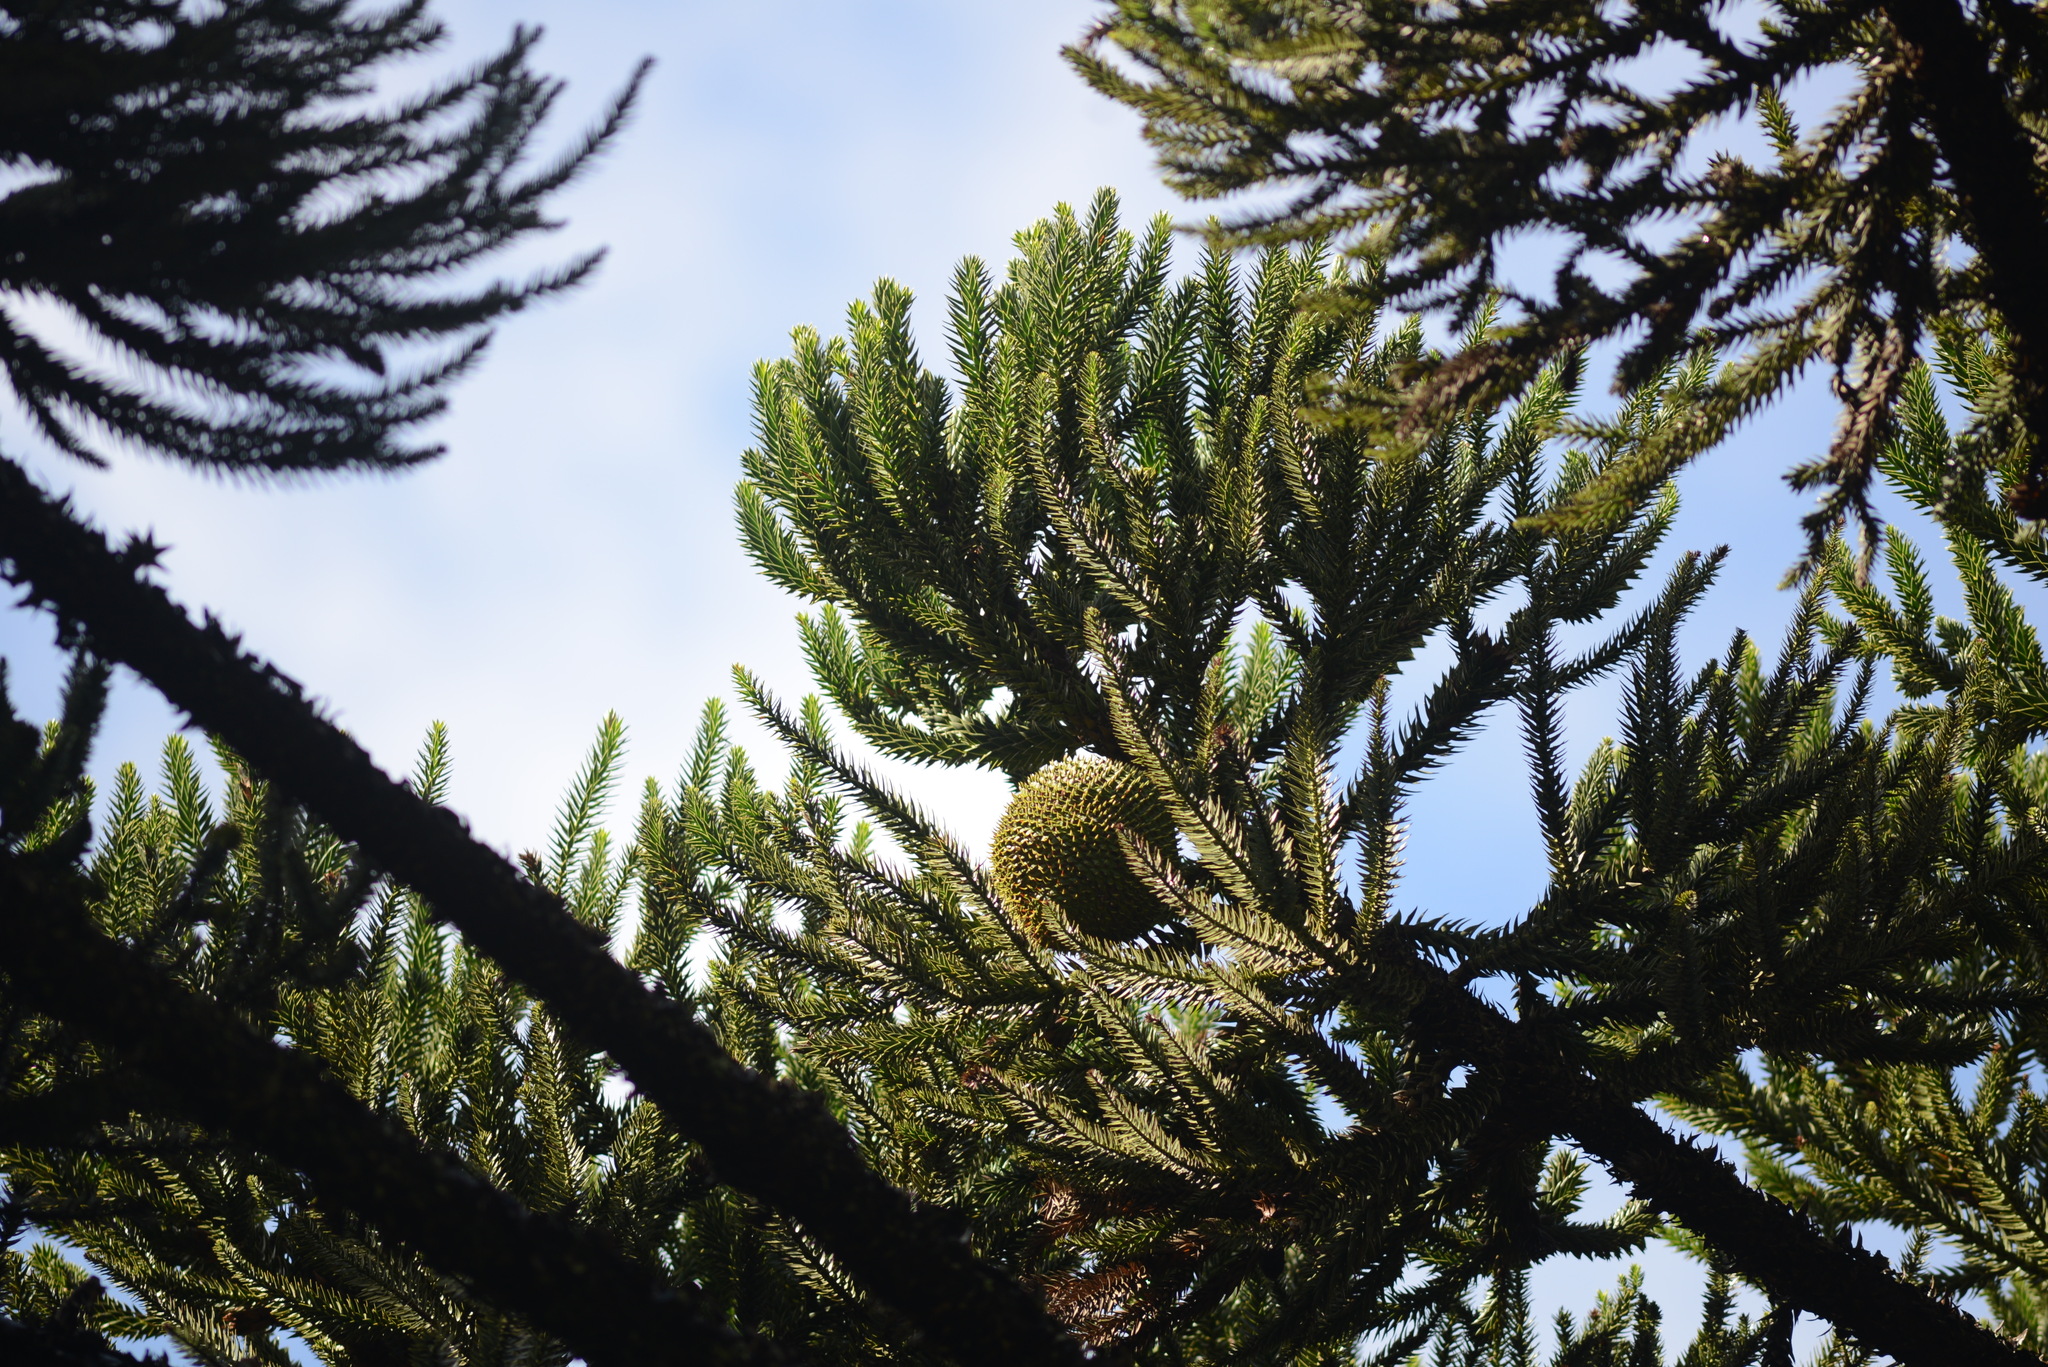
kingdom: Plantae
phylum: Tracheophyta
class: Pinopsida
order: Pinales
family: Araucariaceae
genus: Araucaria
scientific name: Araucaria angustifolia
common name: Candelabra tree
